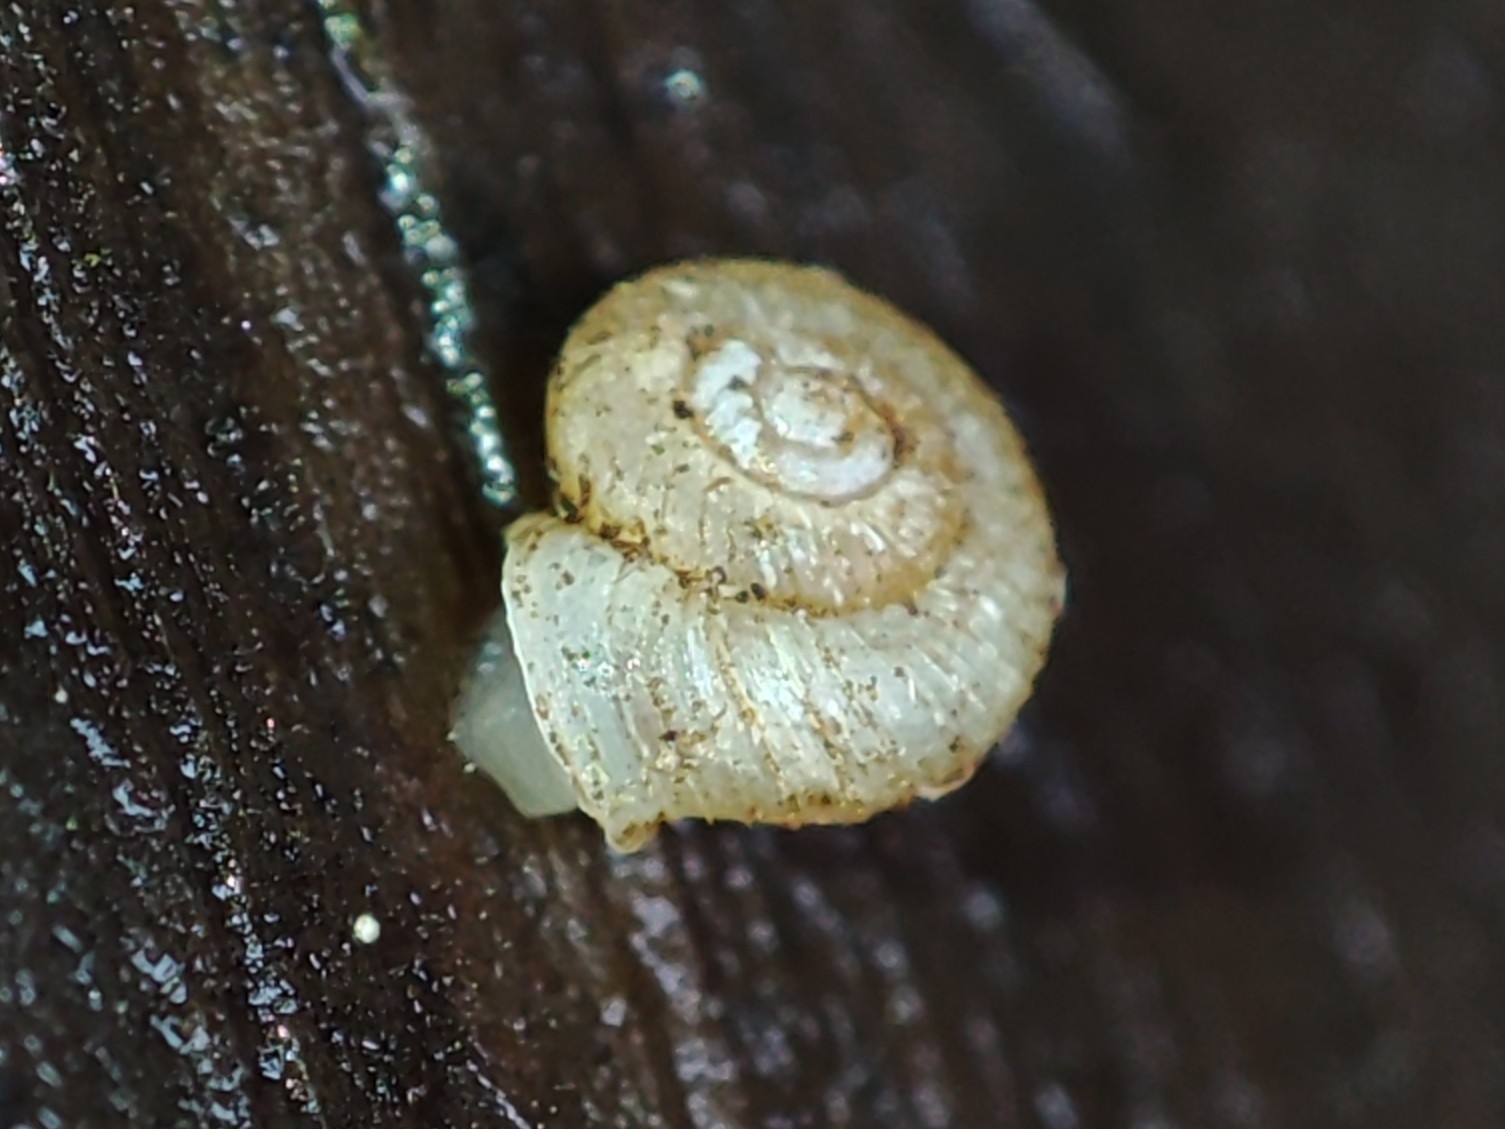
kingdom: Animalia
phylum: Mollusca
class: Gastropoda
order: Stylommatophora
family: Valloniidae
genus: Vallonia
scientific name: Vallonia costata
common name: Ribbed grass snail
